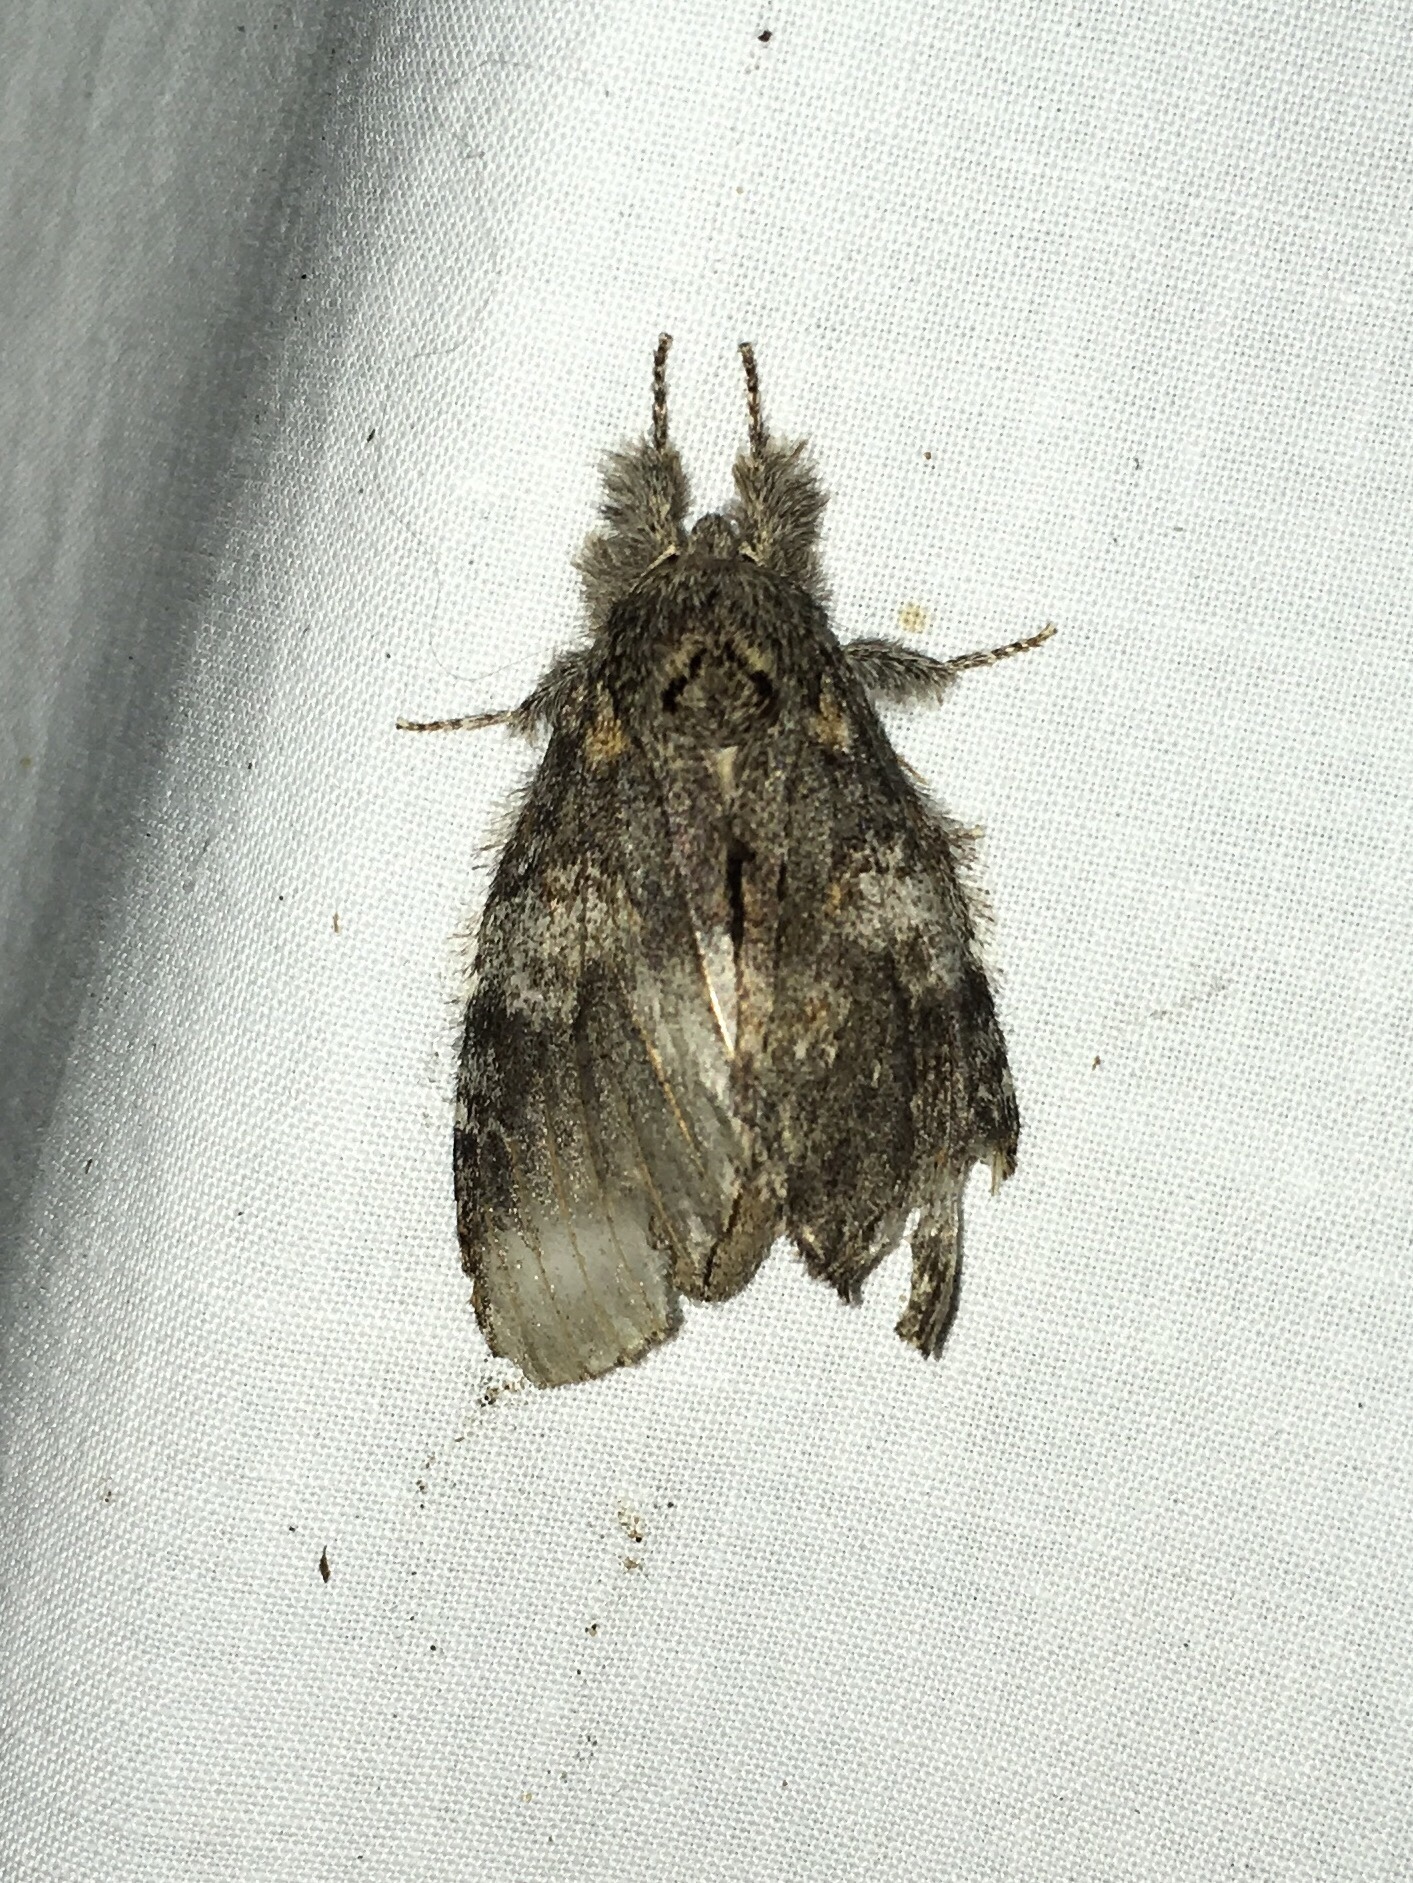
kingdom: Animalia
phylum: Arthropoda
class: Insecta
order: Lepidoptera
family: Notodontidae
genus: Peridea
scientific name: Peridea angulosa
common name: Angulose prominent
